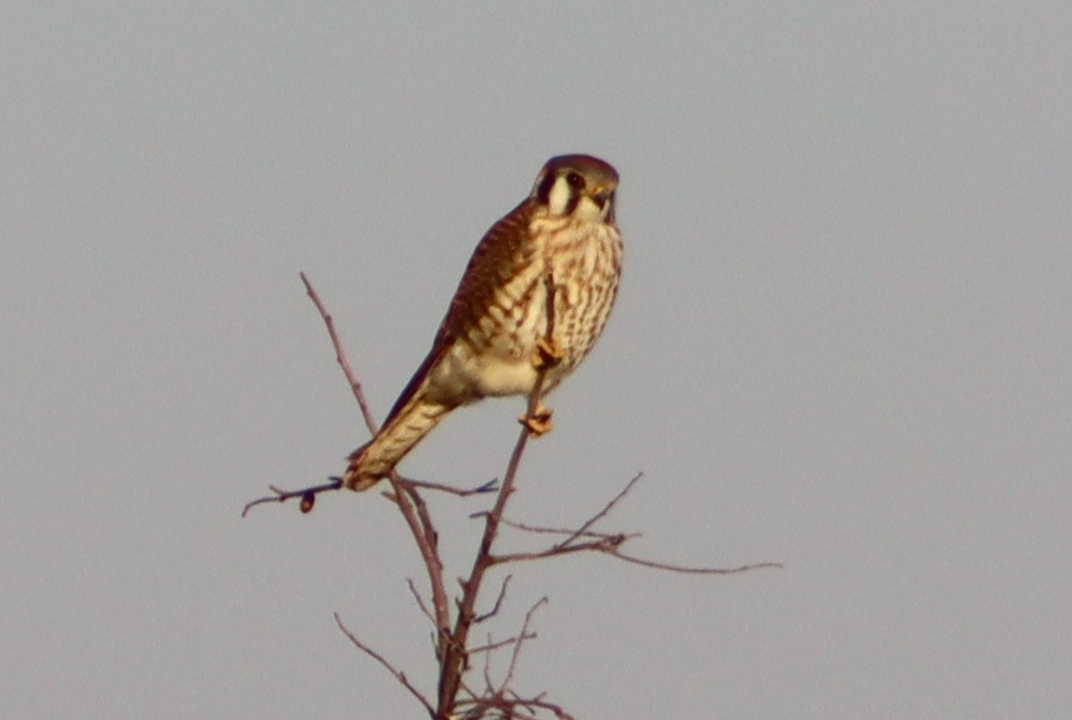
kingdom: Animalia
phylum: Chordata
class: Aves
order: Falconiformes
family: Falconidae
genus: Falco
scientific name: Falco sparverius
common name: American kestrel
